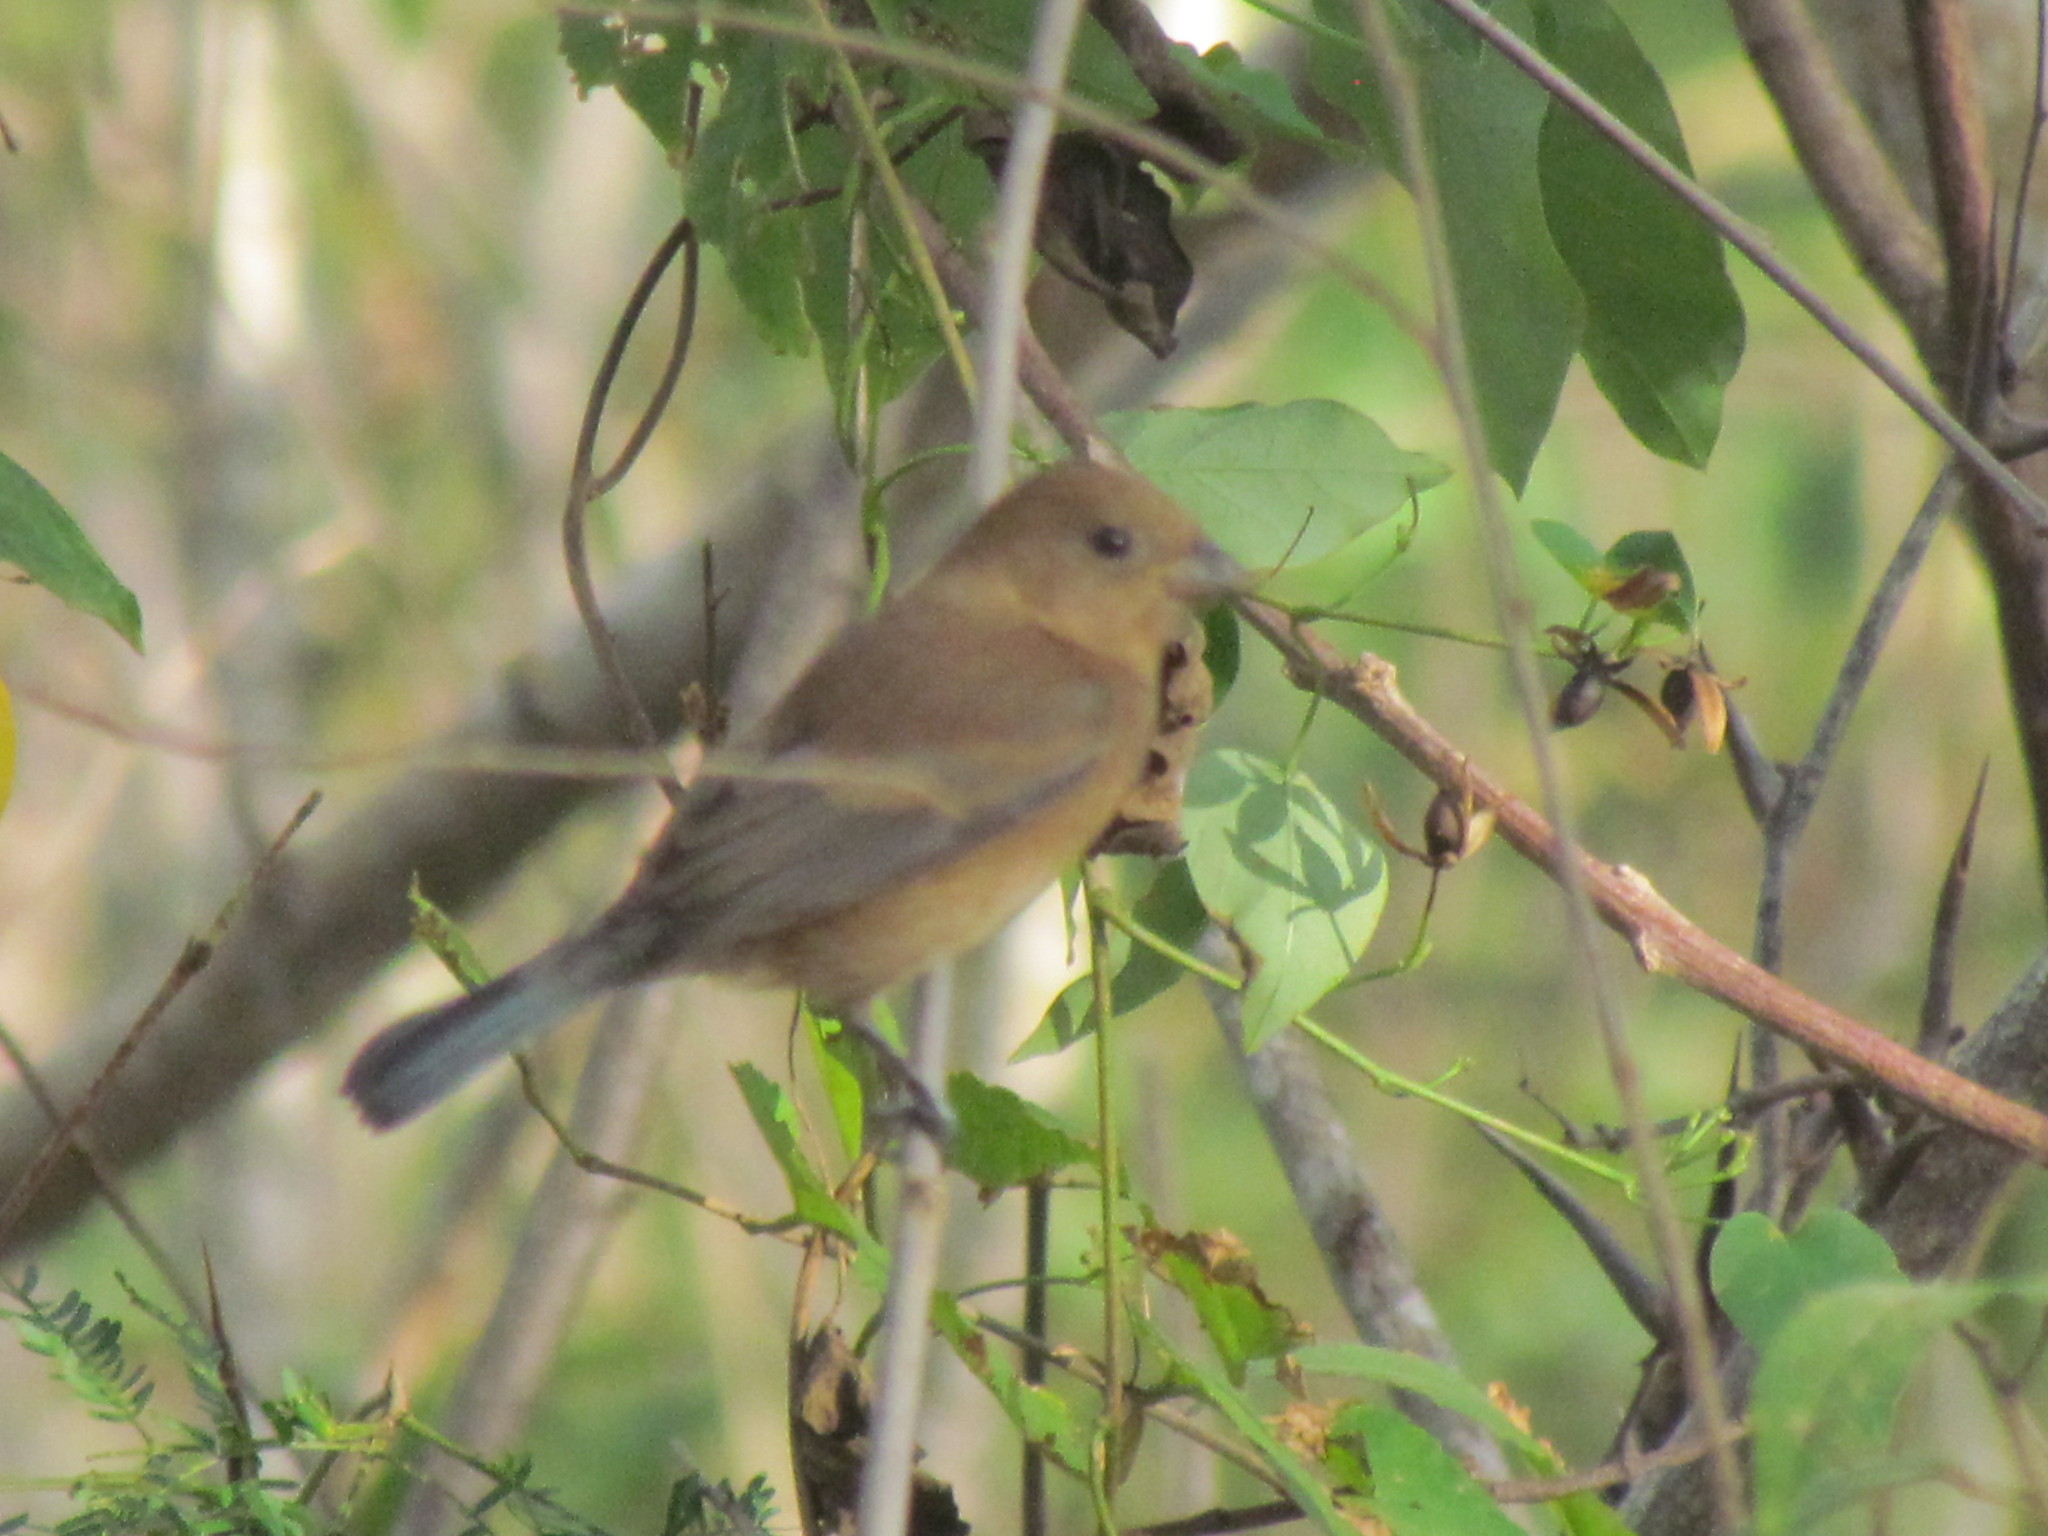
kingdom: Animalia
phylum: Chordata
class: Aves
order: Passeriformes
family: Cardinalidae
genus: Passerina
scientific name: Passerina cyanea
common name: Indigo bunting
